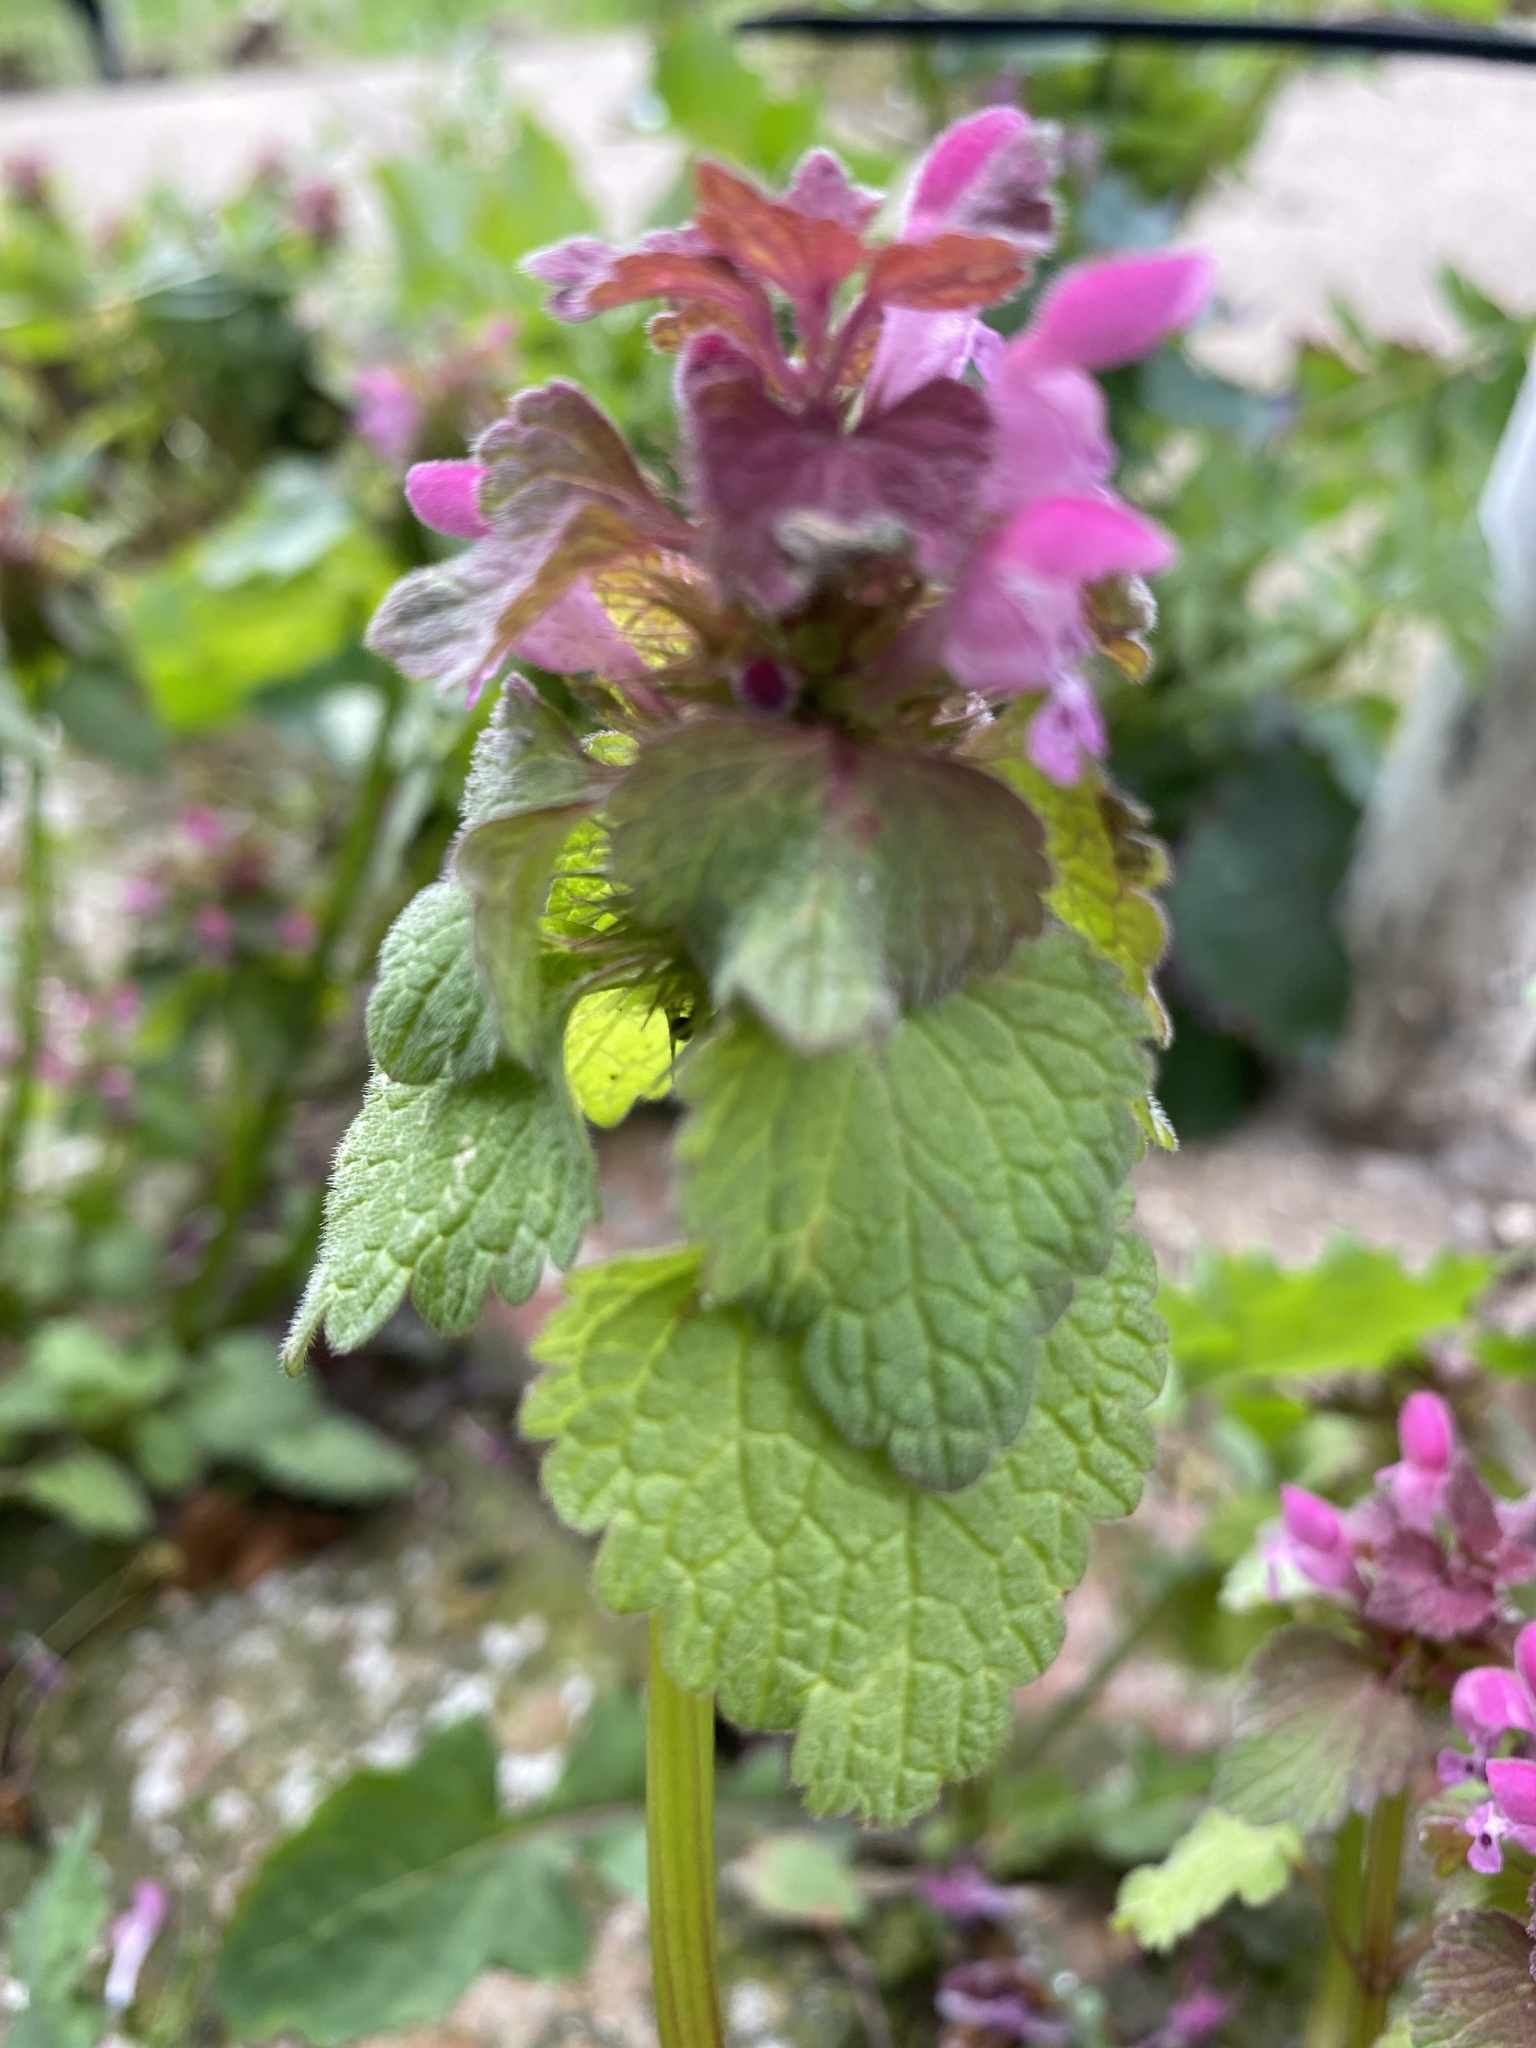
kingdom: Plantae
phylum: Tracheophyta
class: Magnoliopsida
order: Lamiales
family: Lamiaceae
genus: Lamium
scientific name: Lamium purpureum
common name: Red dead-nettle
